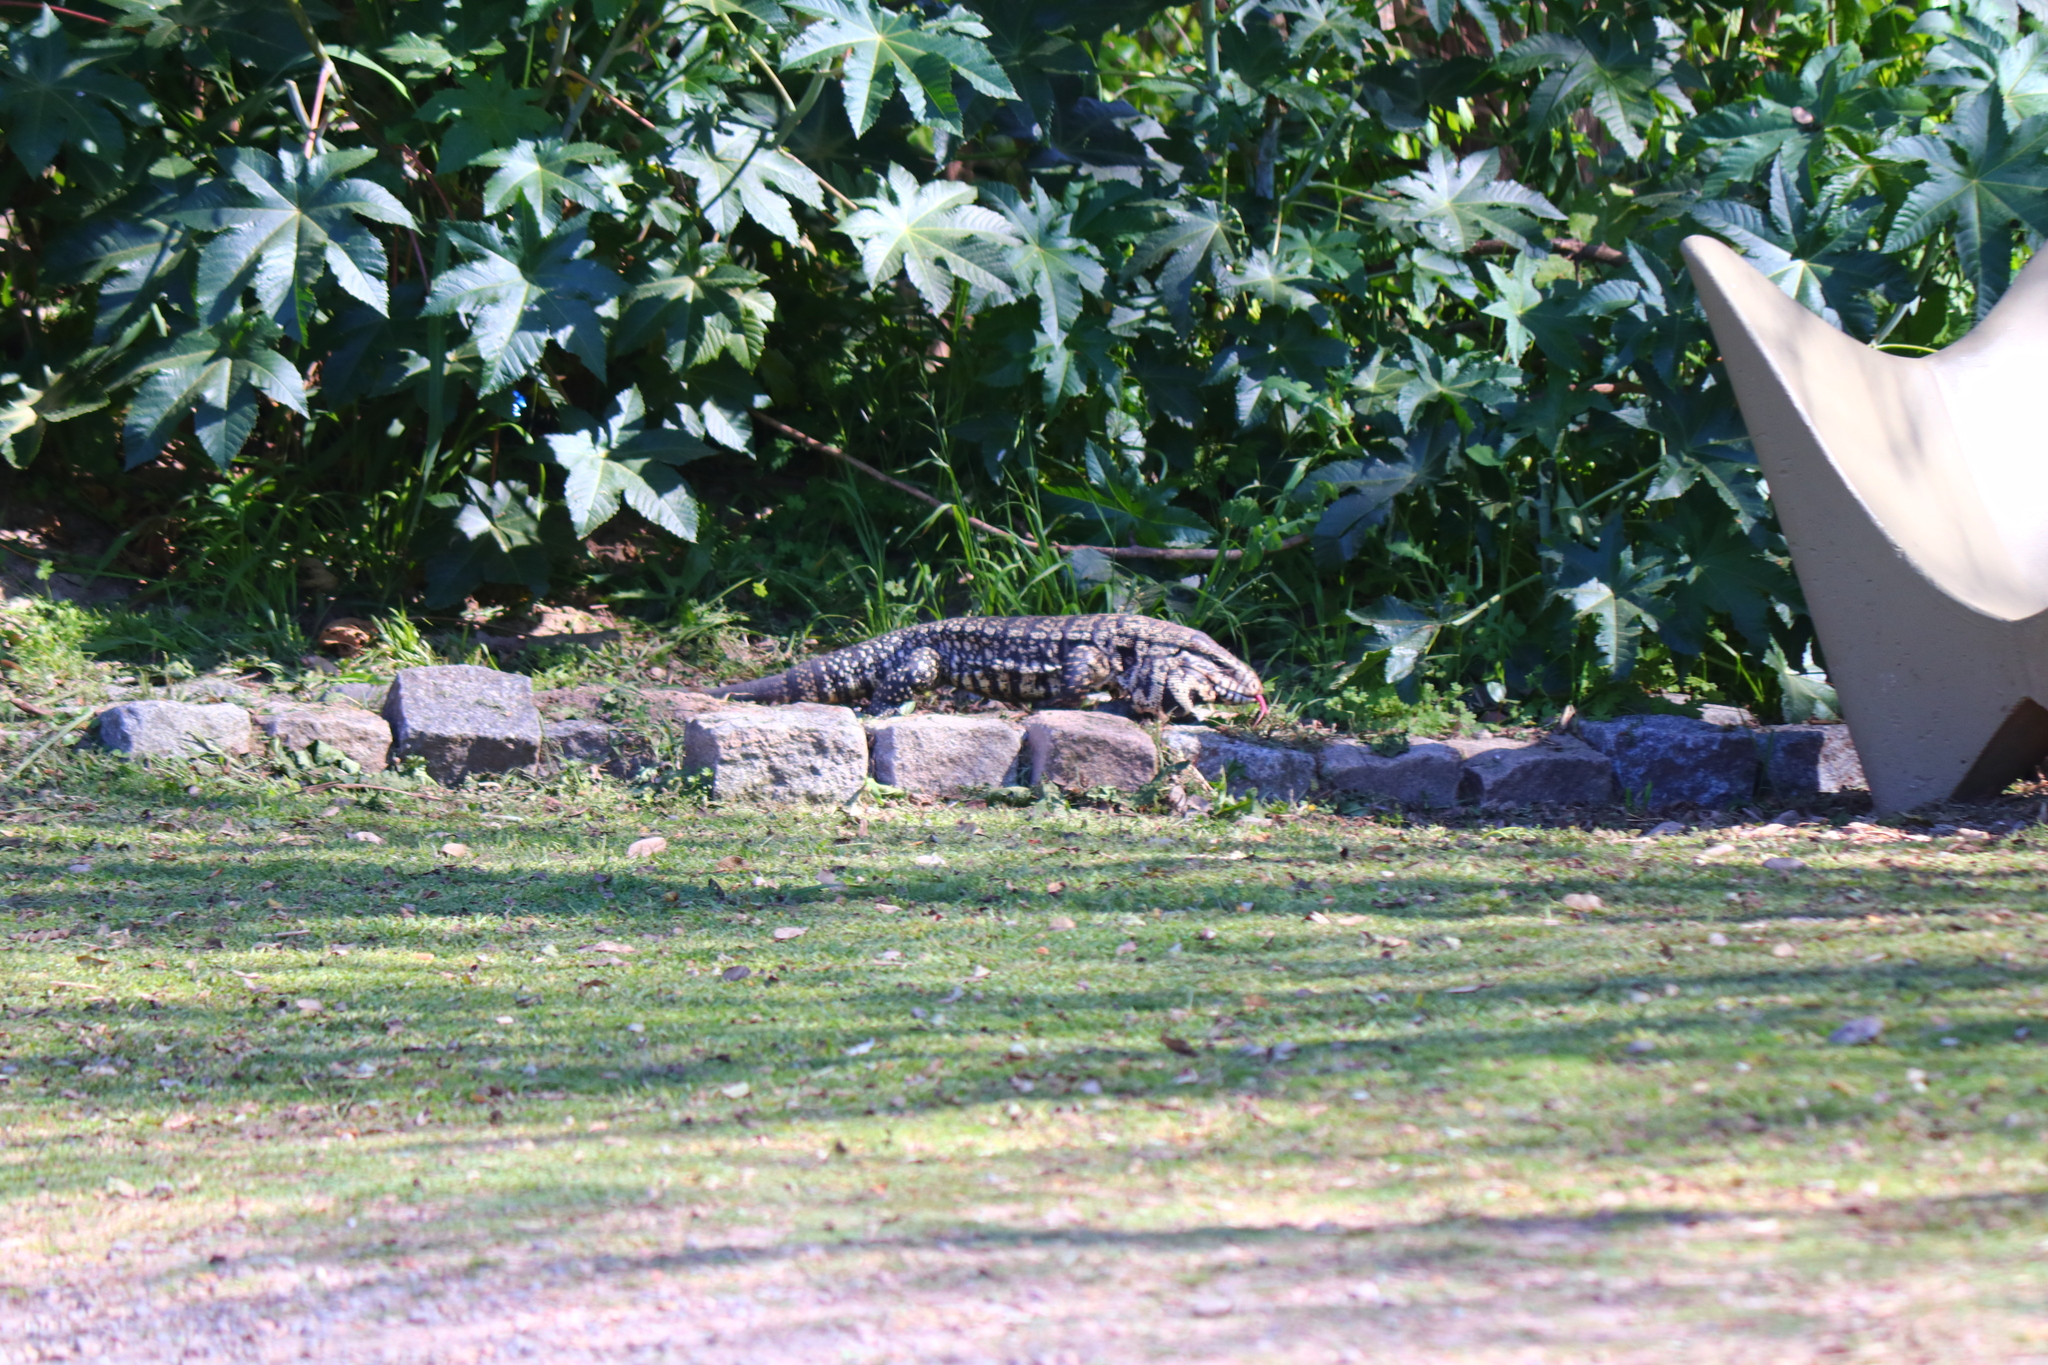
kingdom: Animalia
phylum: Chordata
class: Squamata
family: Teiidae
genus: Salvator
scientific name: Salvator merianae
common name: Argentine black and white tegu
